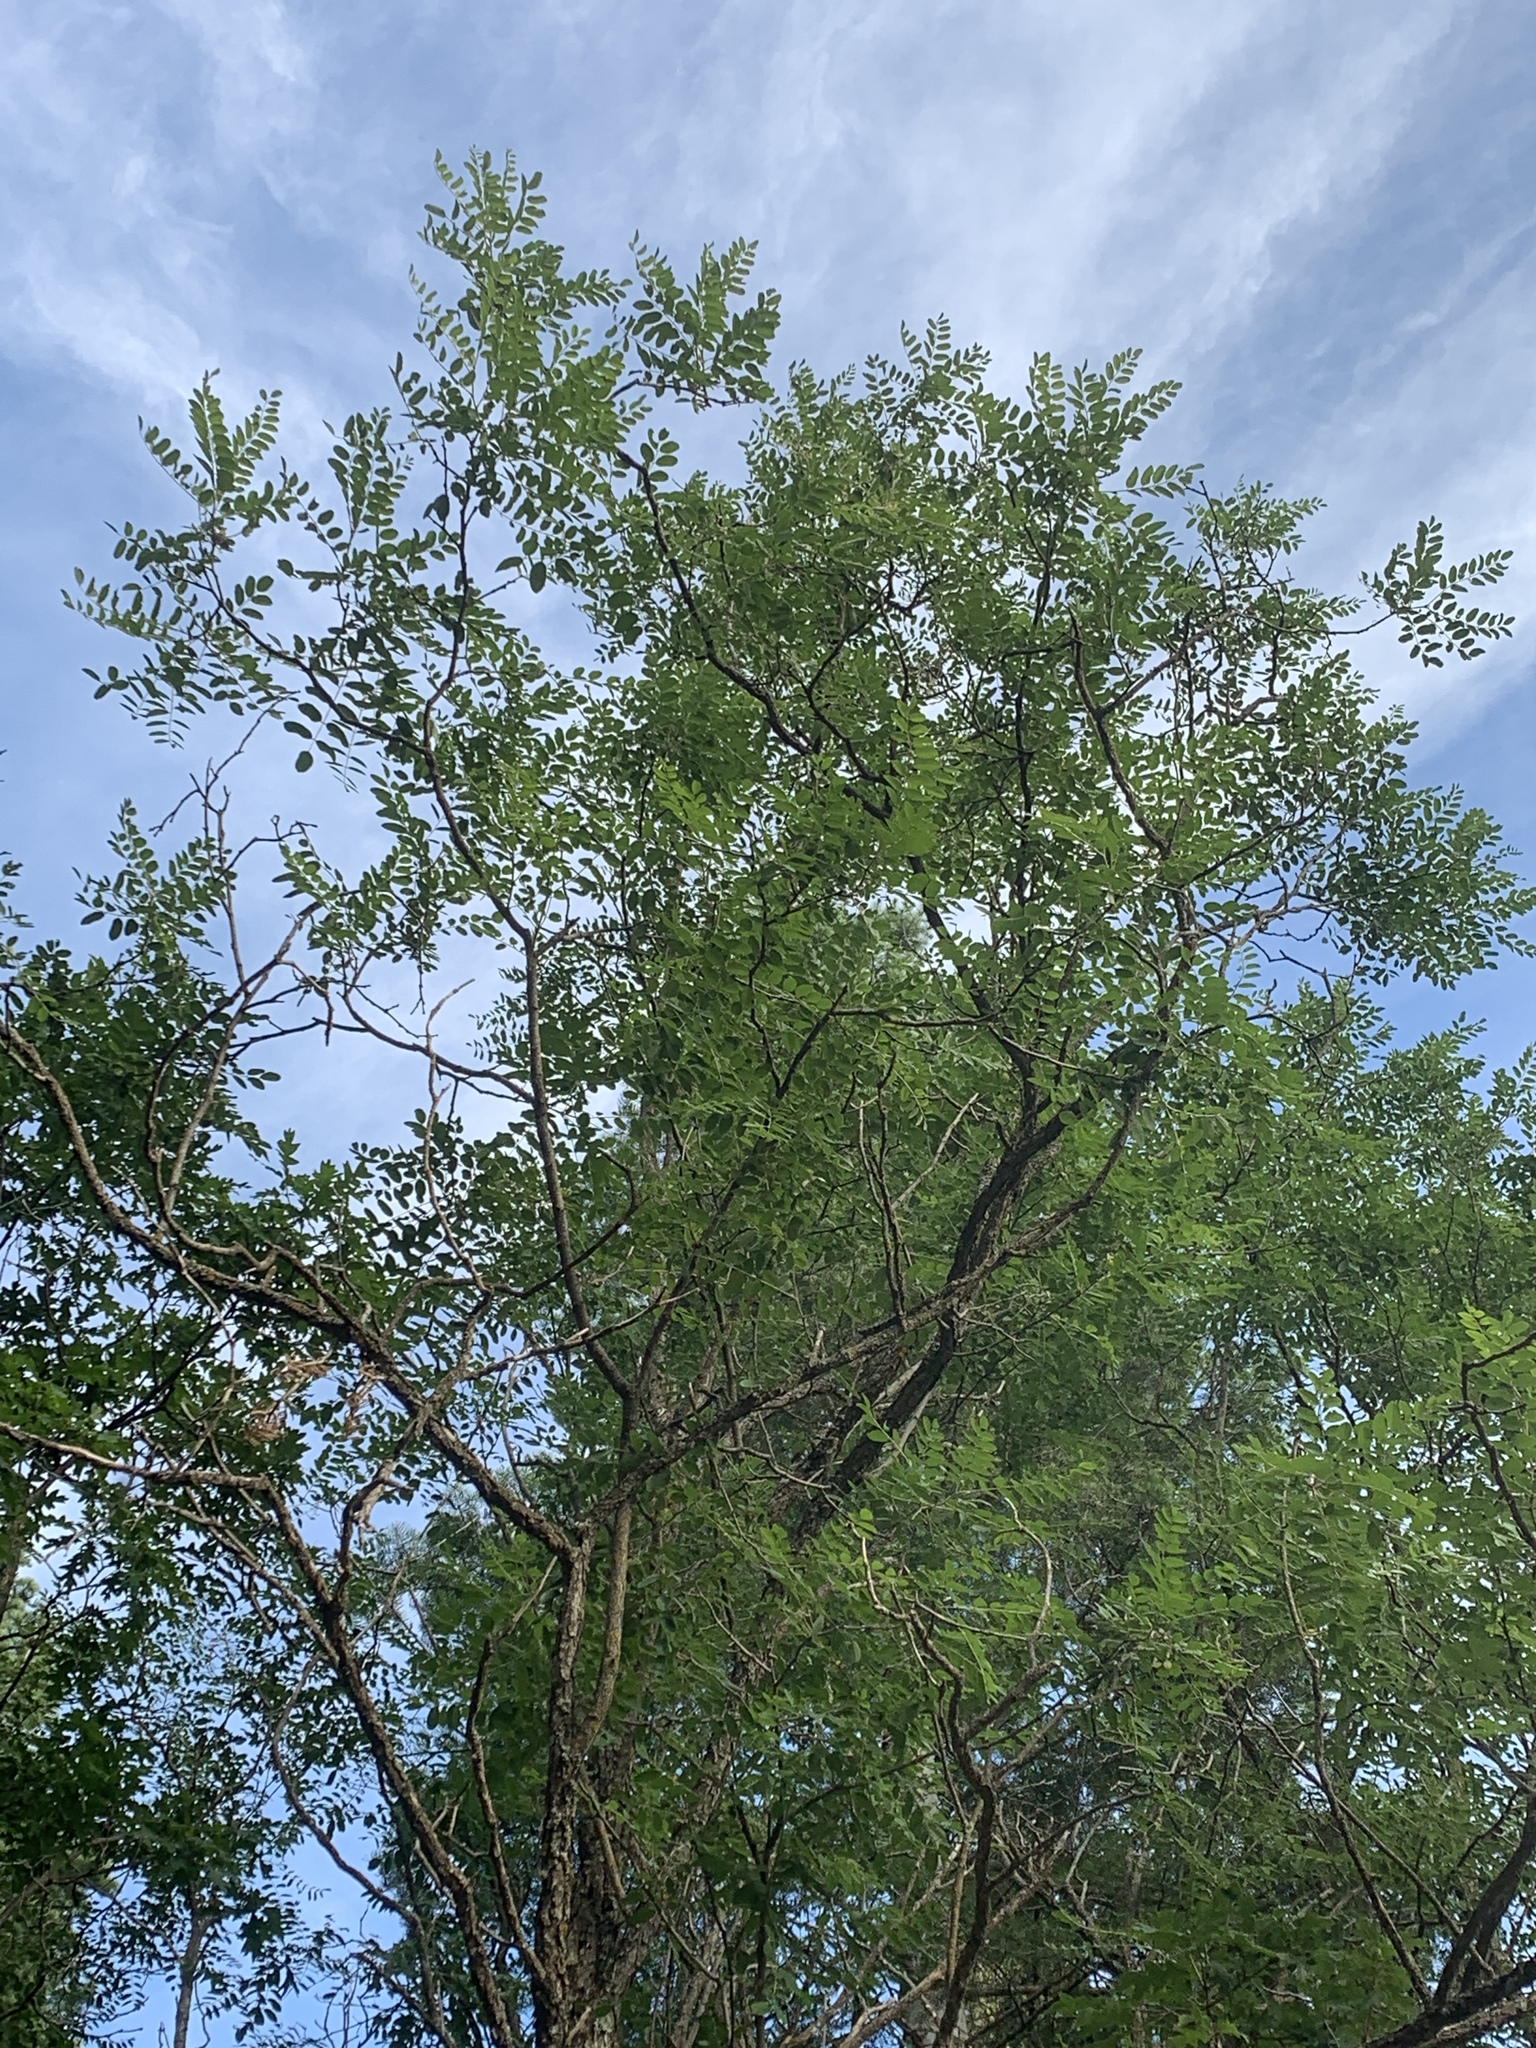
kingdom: Plantae
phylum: Tracheophyta
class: Magnoliopsida
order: Fabales
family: Fabaceae
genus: Robinia
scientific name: Robinia neomexicana
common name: New mexico locust
